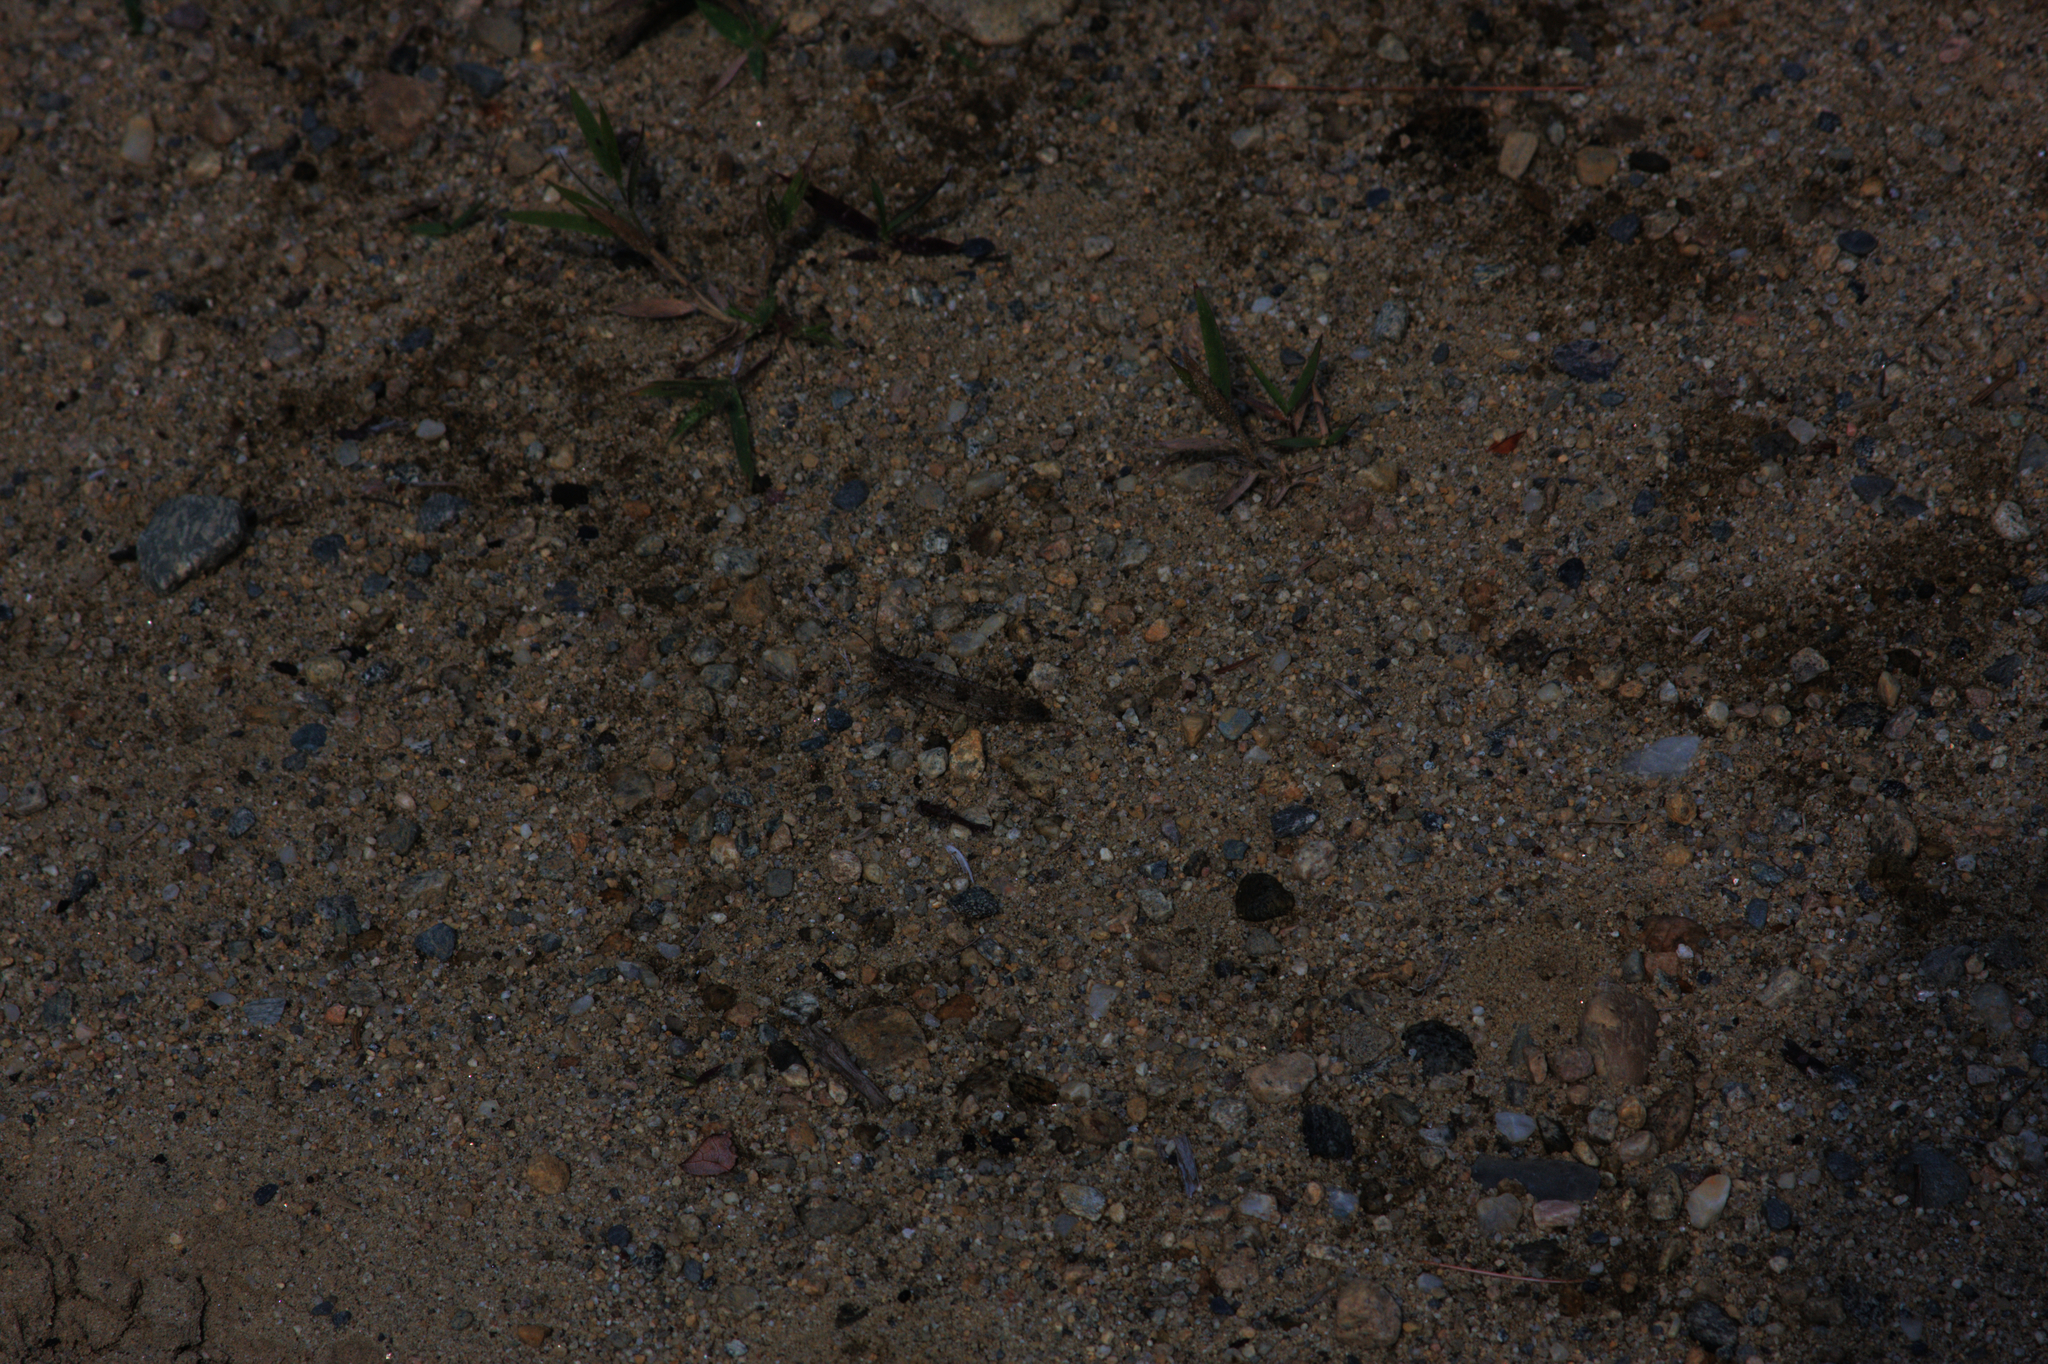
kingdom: Animalia
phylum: Arthropoda
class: Insecta
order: Orthoptera
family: Acrididae
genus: Dissosteira
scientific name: Dissosteira carolina
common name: Carolina grasshopper
